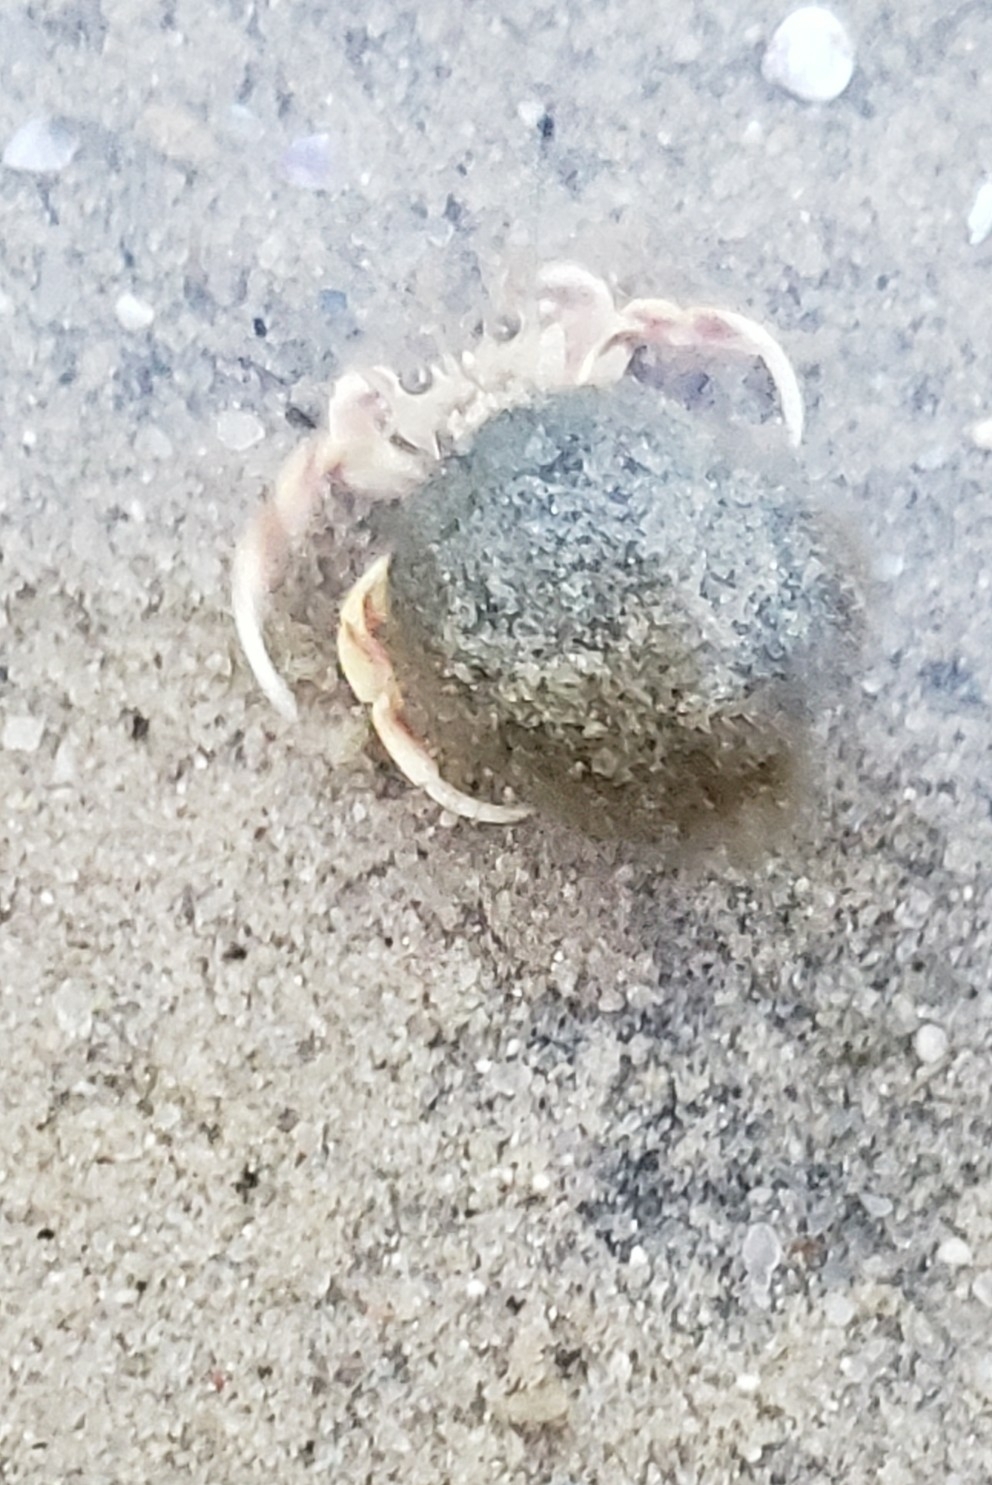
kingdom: Animalia
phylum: Arthropoda
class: Malacostraca
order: Decapoda
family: Paguridae
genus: Pagurus
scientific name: Pagurus longicarpus
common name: Long-armed hermit crab
